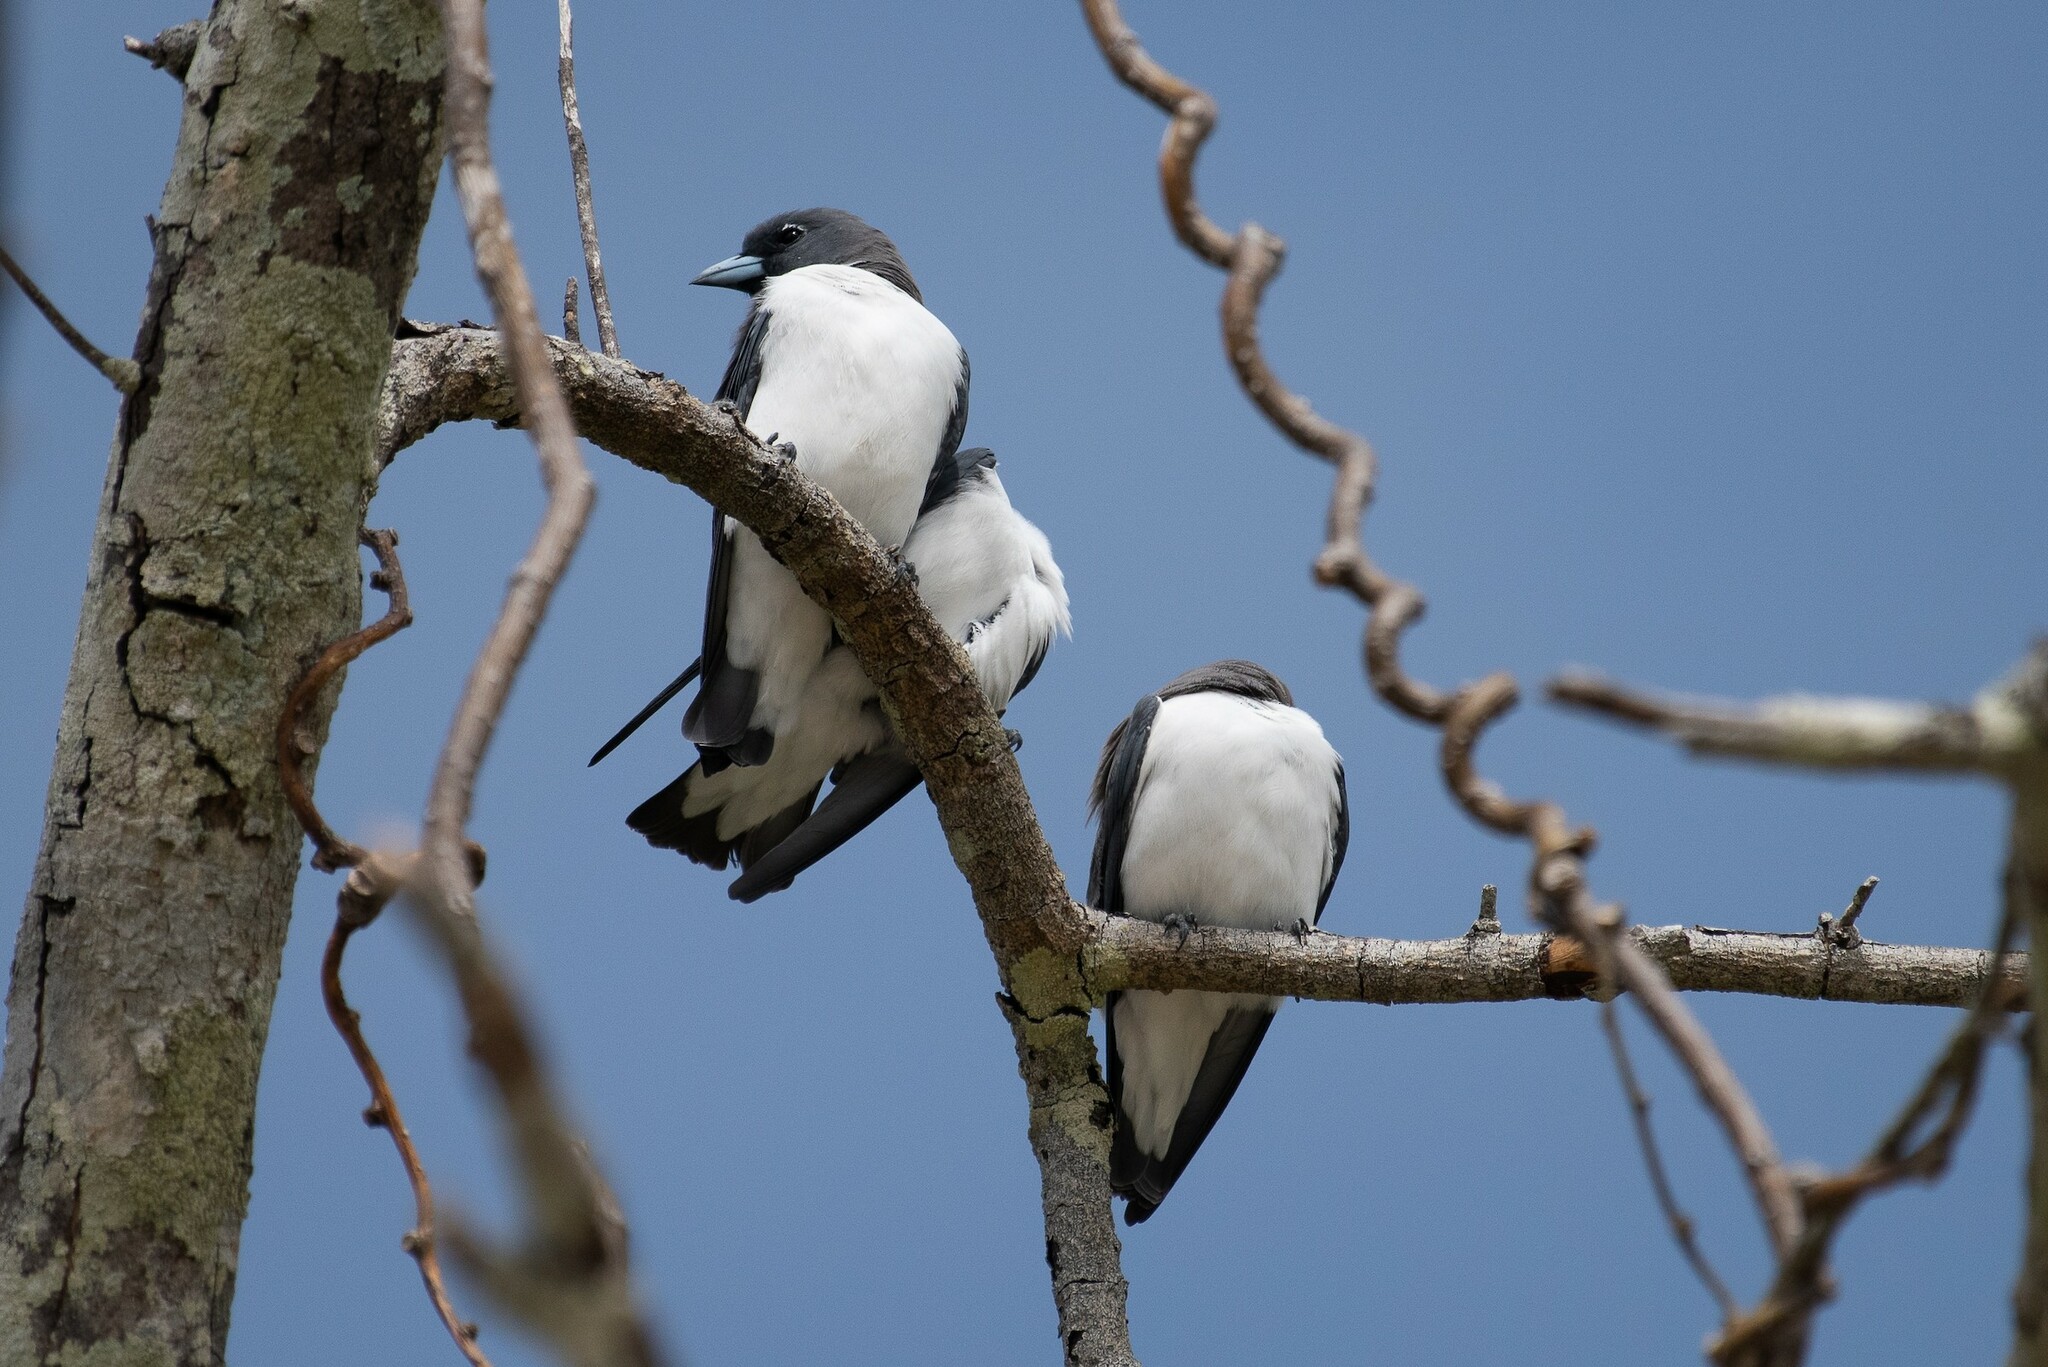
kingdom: Animalia
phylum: Chordata
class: Aves
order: Passeriformes
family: Artamidae
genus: Artamus
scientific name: Artamus leucoryn
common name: White-breasted woodswallow
